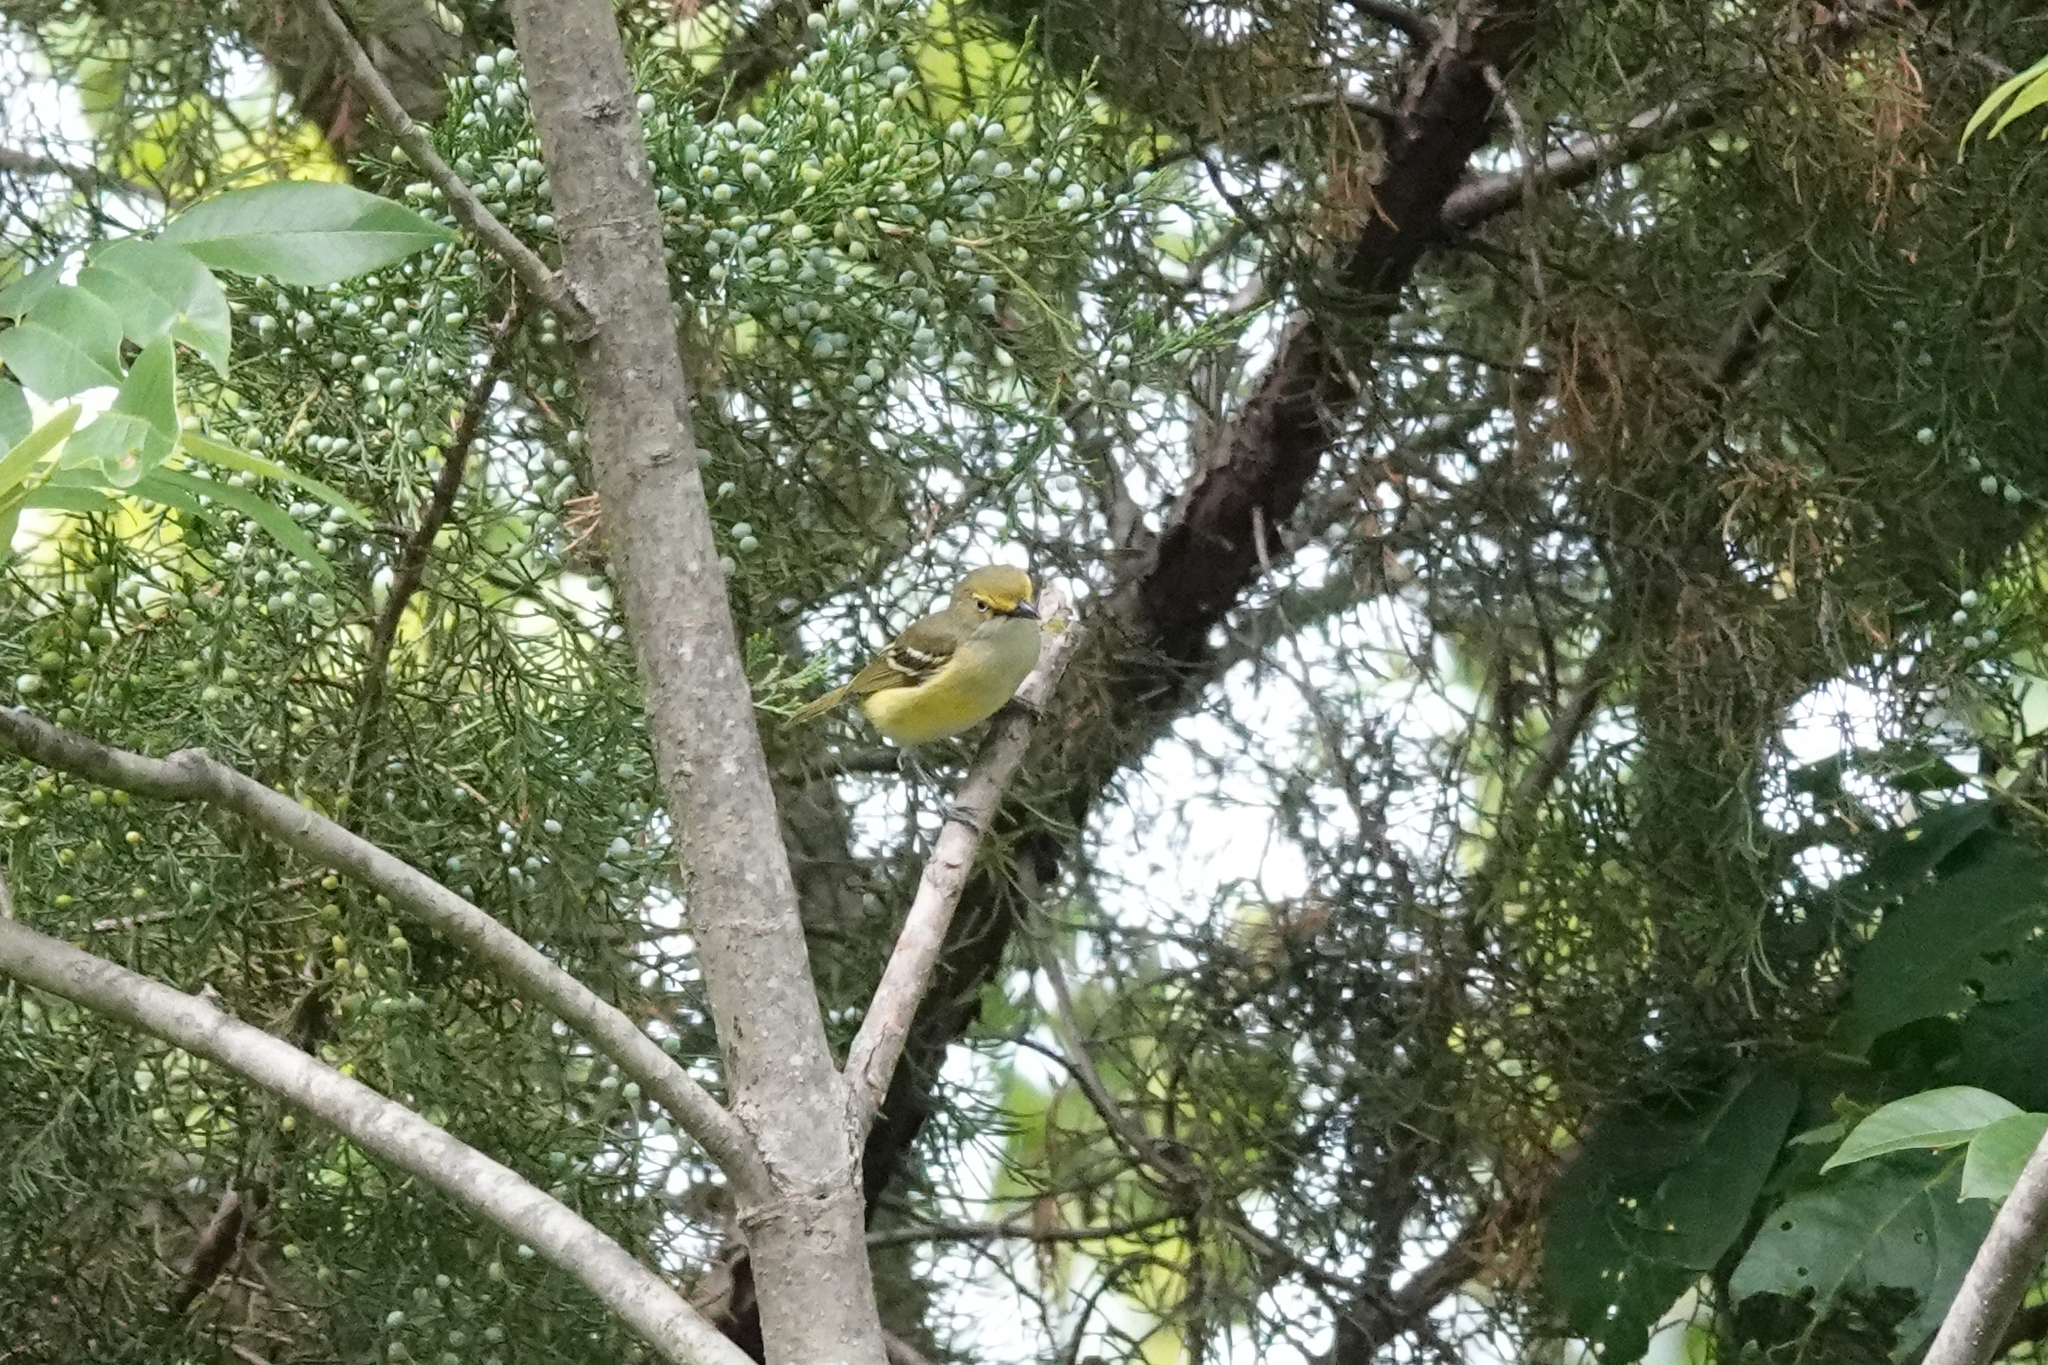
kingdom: Animalia
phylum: Chordata
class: Aves
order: Passeriformes
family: Vireonidae
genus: Vireo
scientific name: Vireo griseus
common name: White-eyed vireo
